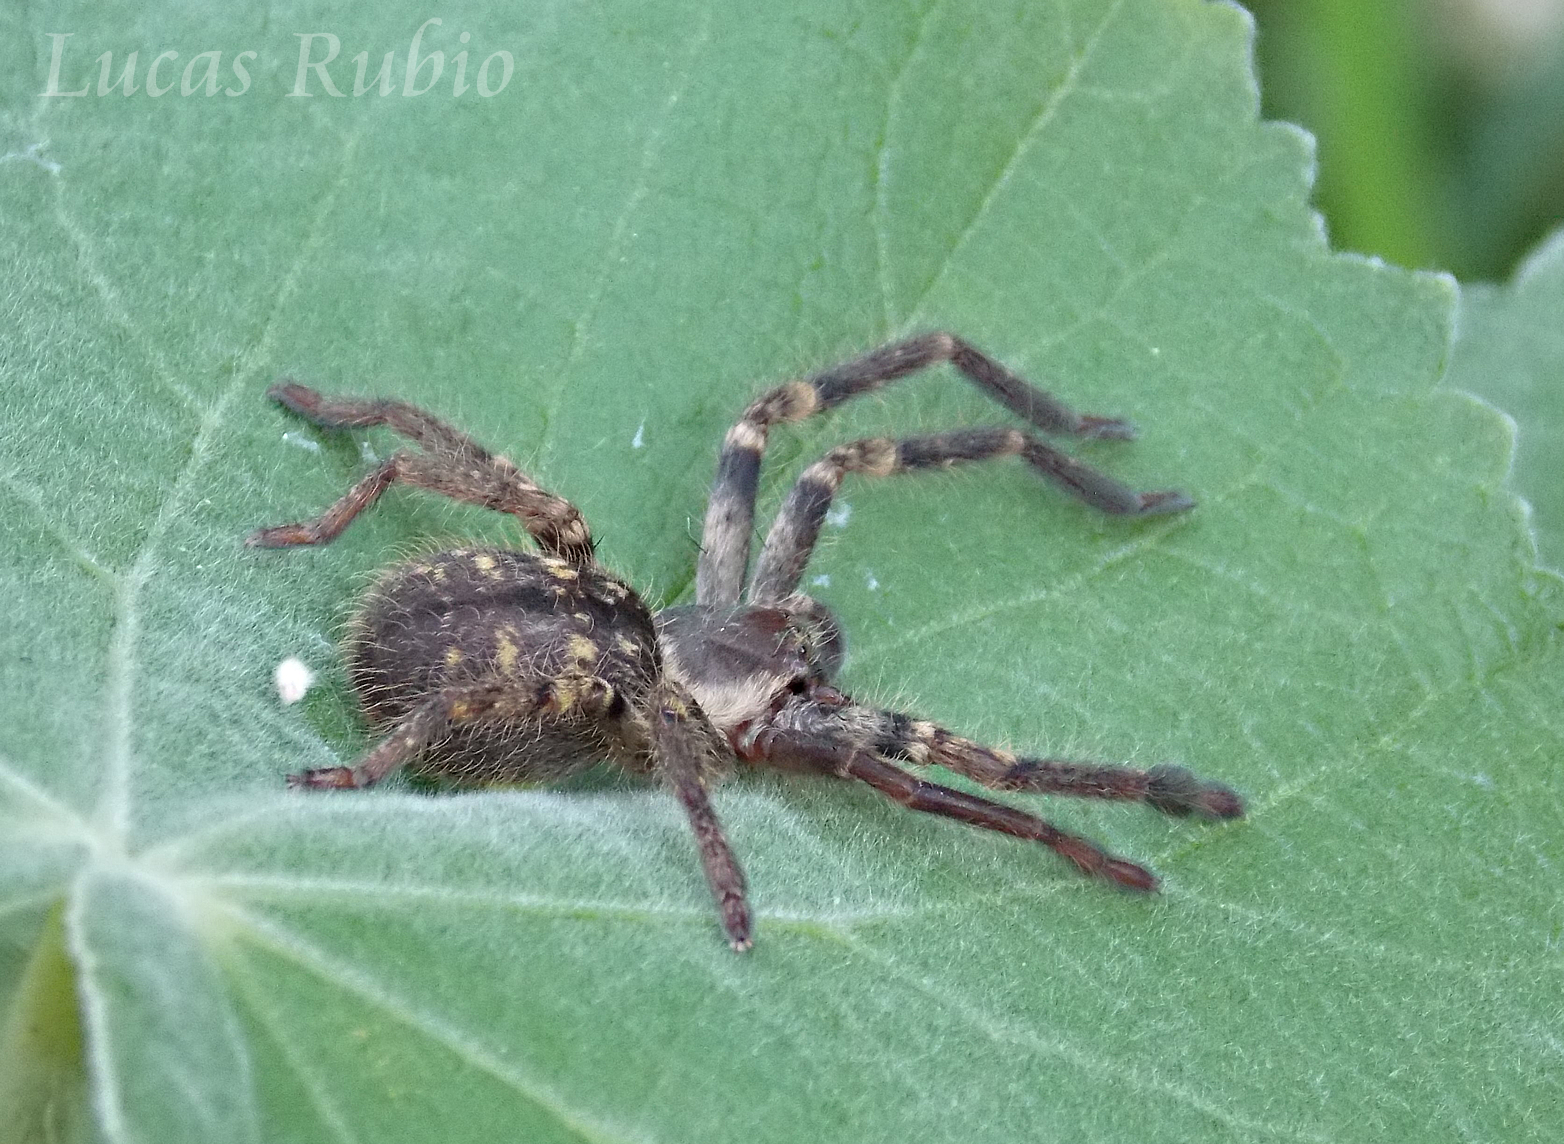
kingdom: Animalia
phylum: Arthropoda
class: Arachnida
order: Araneae
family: Sparassidae
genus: Polybetes
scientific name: Polybetes pythagoricus
